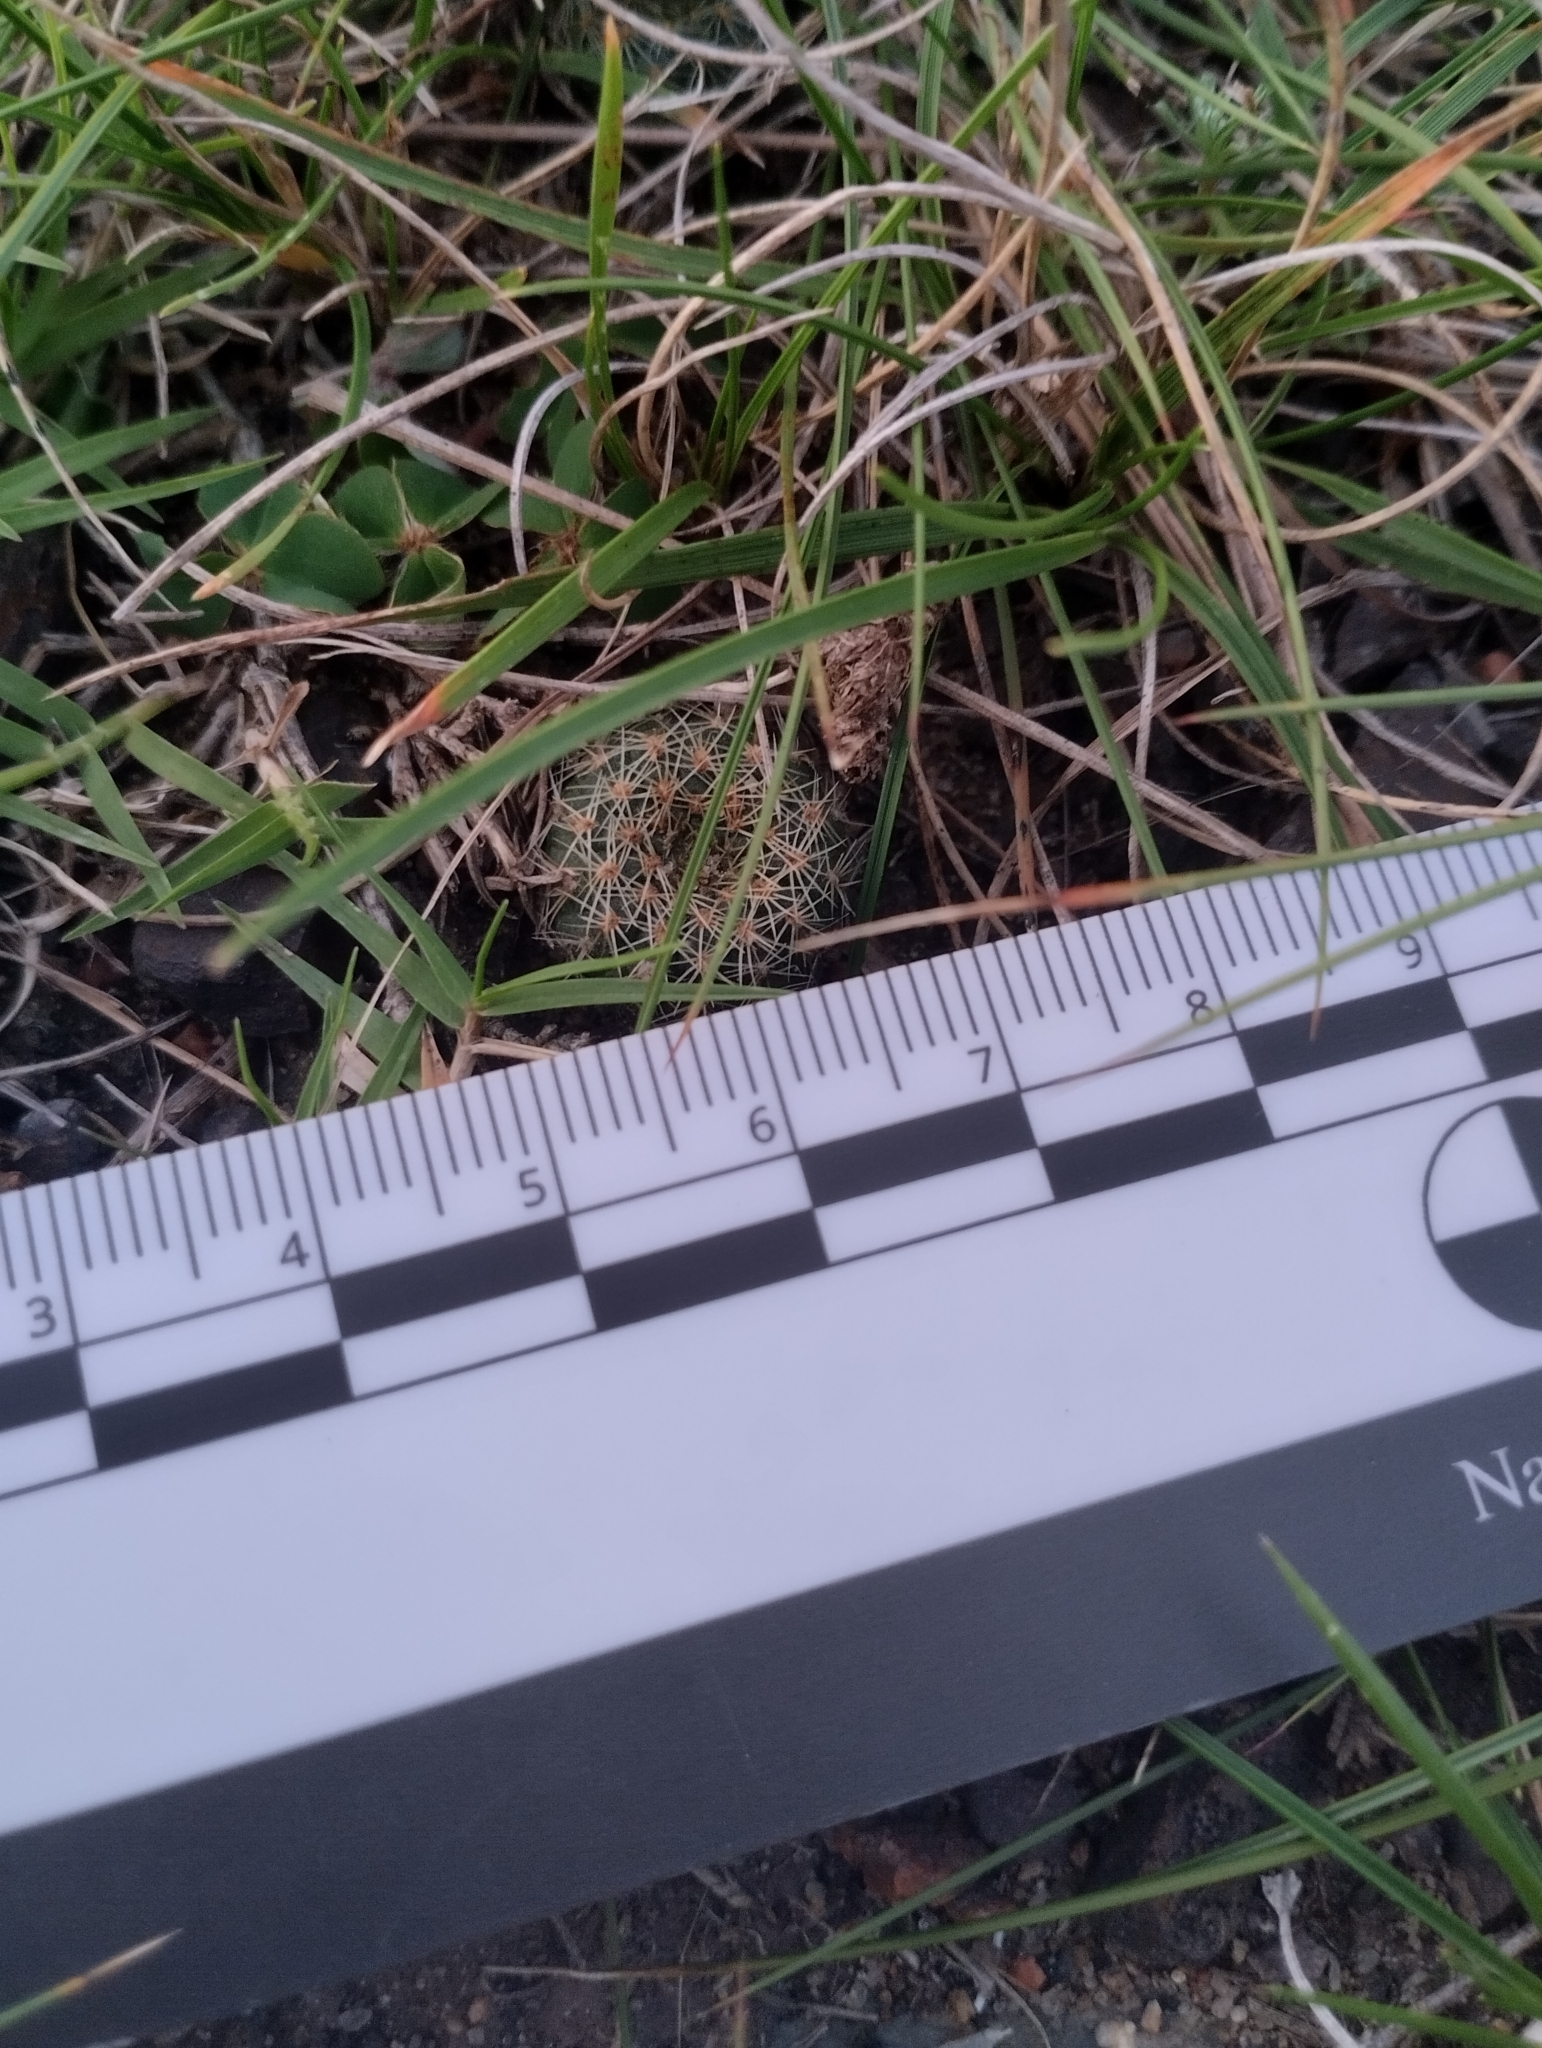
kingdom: Plantae
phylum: Tracheophyta
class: Magnoliopsida
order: Caryophyllales
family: Cactaceae
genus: Frailea
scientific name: Frailea pygmaea
